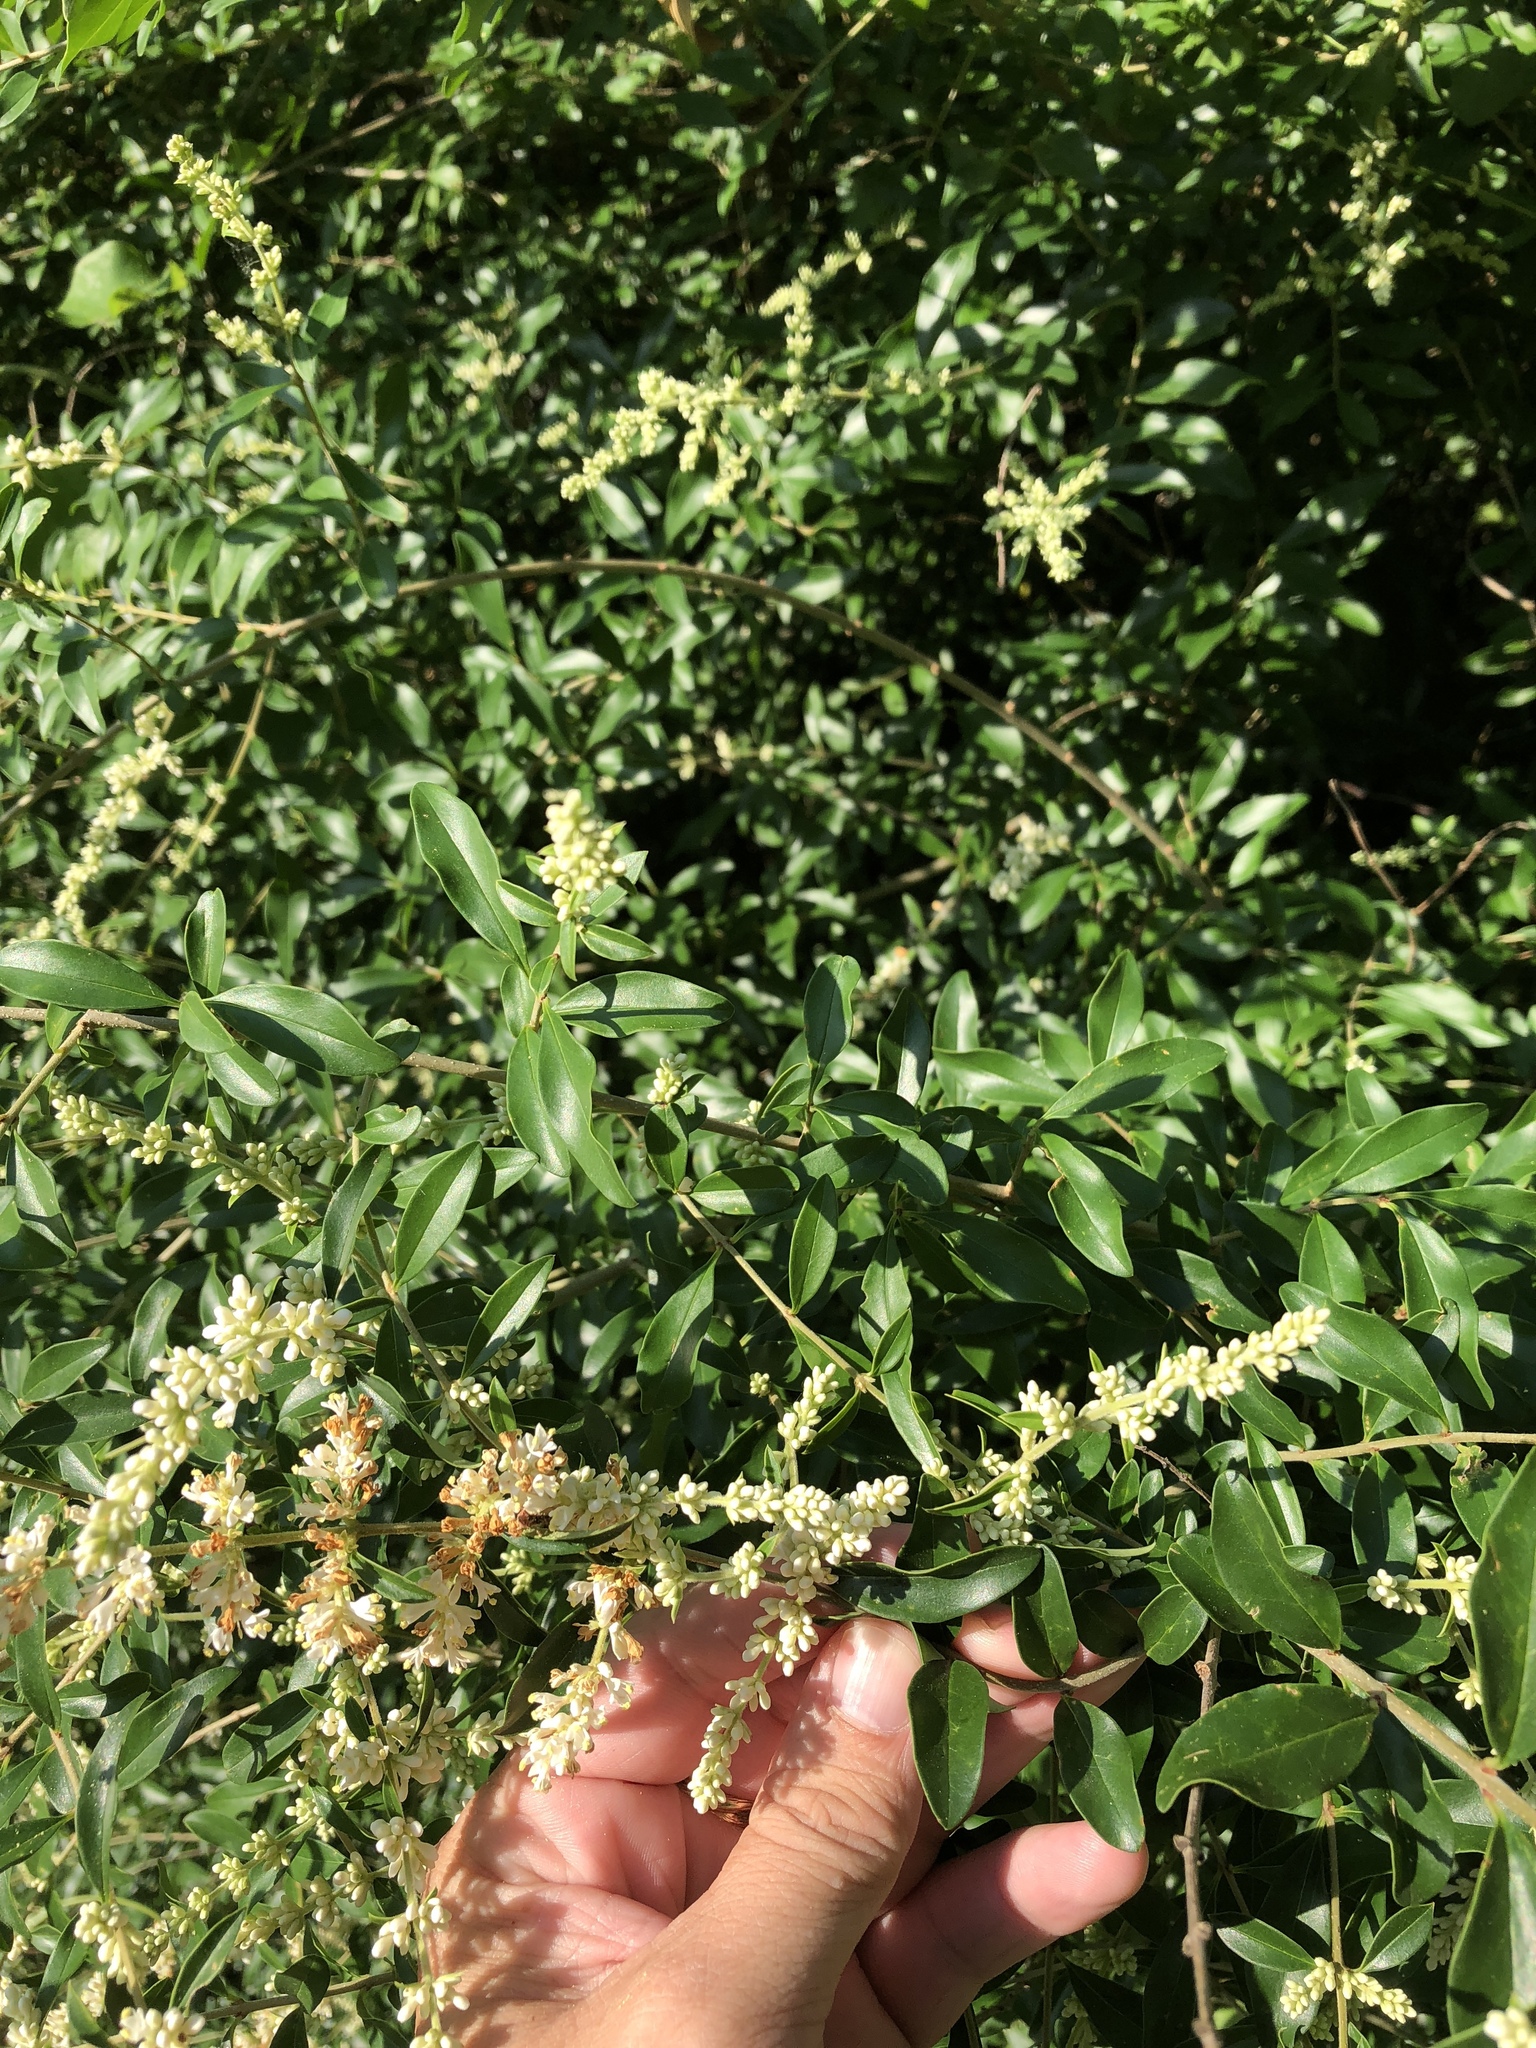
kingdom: Plantae
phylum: Tracheophyta
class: Magnoliopsida
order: Lamiales
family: Oleaceae
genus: Ligustrum
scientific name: Ligustrum quihoui
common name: Waxyleaf privet
